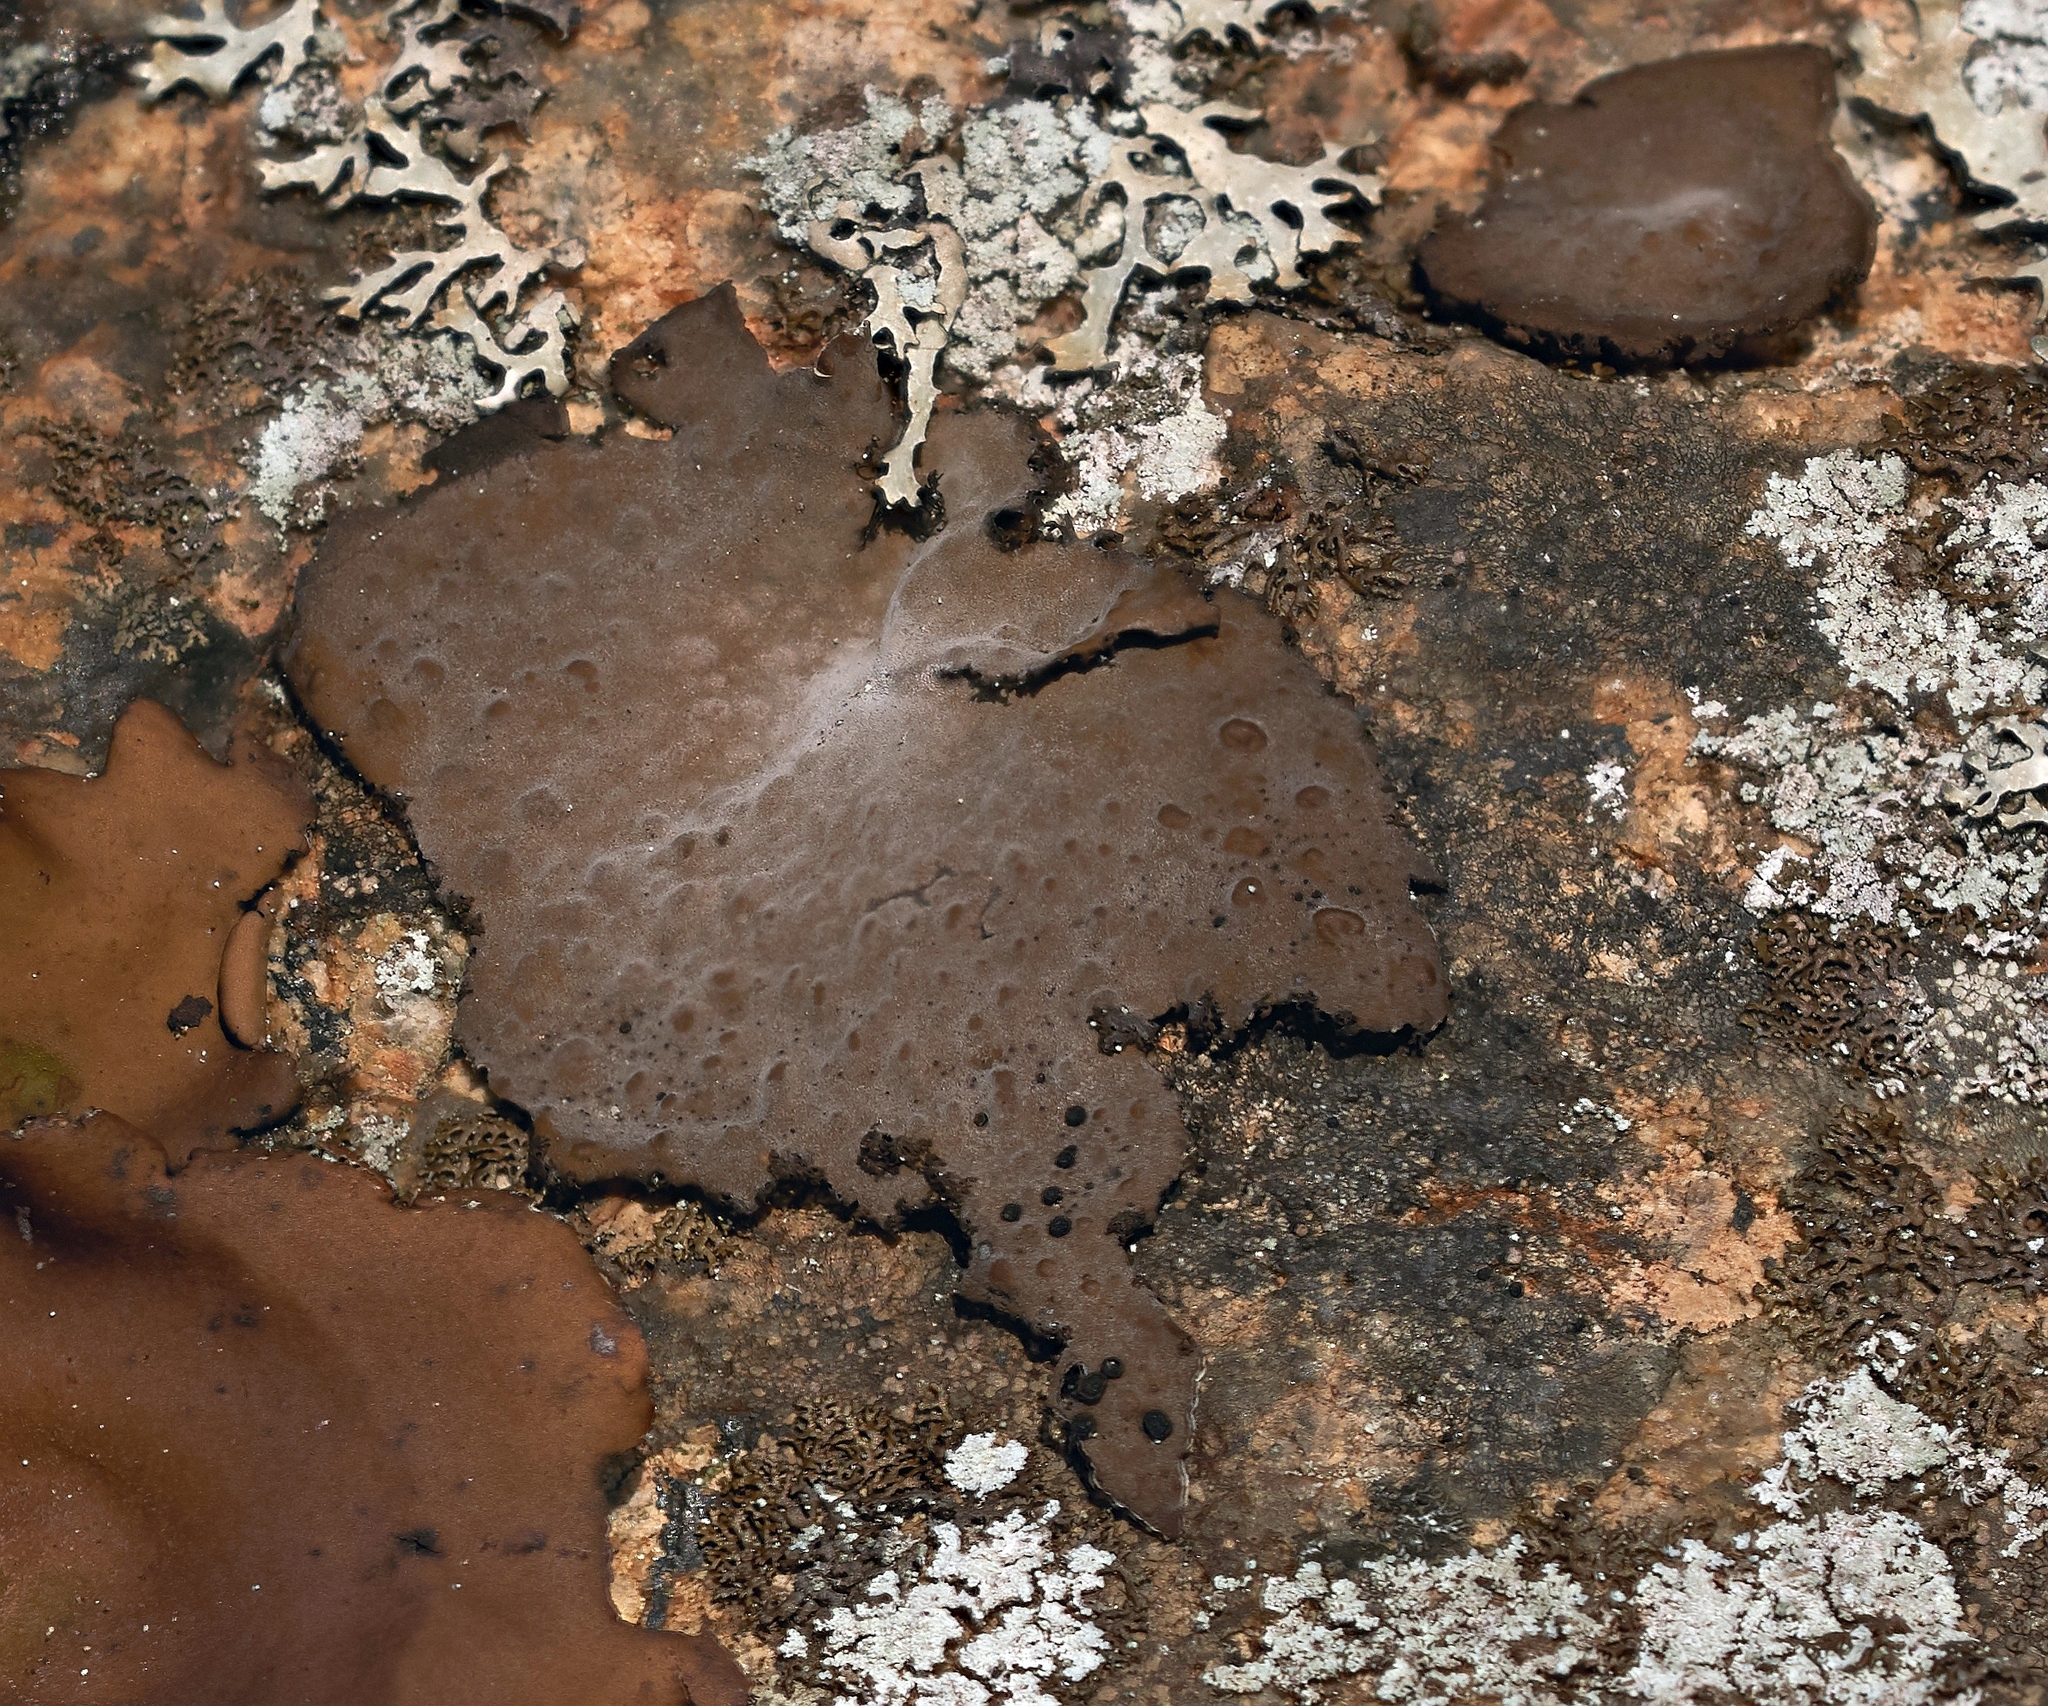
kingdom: Fungi
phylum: Ascomycota
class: Lecanoromycetes
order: Umbilicariales
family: Umbilicariaceae
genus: Lasallia
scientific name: Lasallia papulosa
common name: Common toadskin lichen
